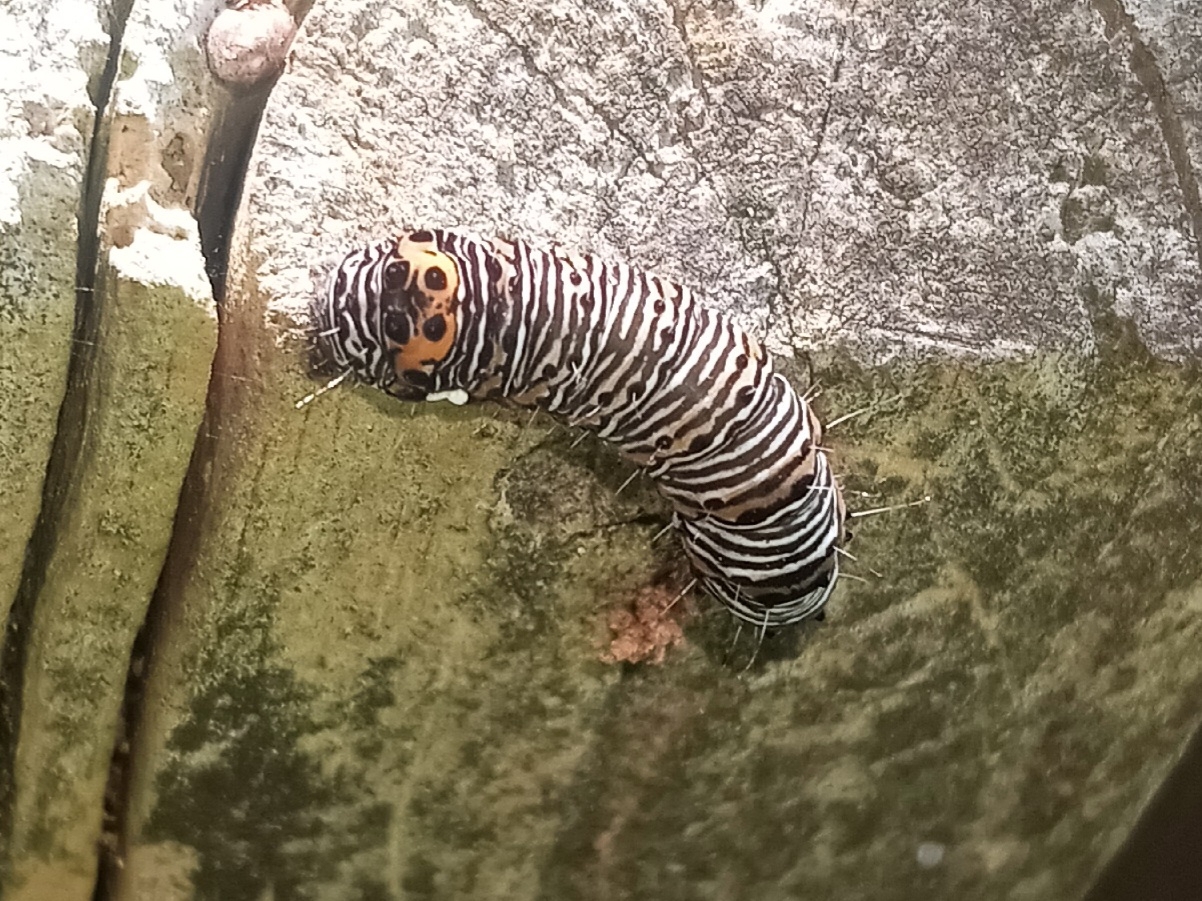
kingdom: Animalia
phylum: Arthropoda
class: Insecta
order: Lepidoptera
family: Noctuidae
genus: Psychomorpha
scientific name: Psychomorpha epimenis
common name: Grapevine epimenis moth
